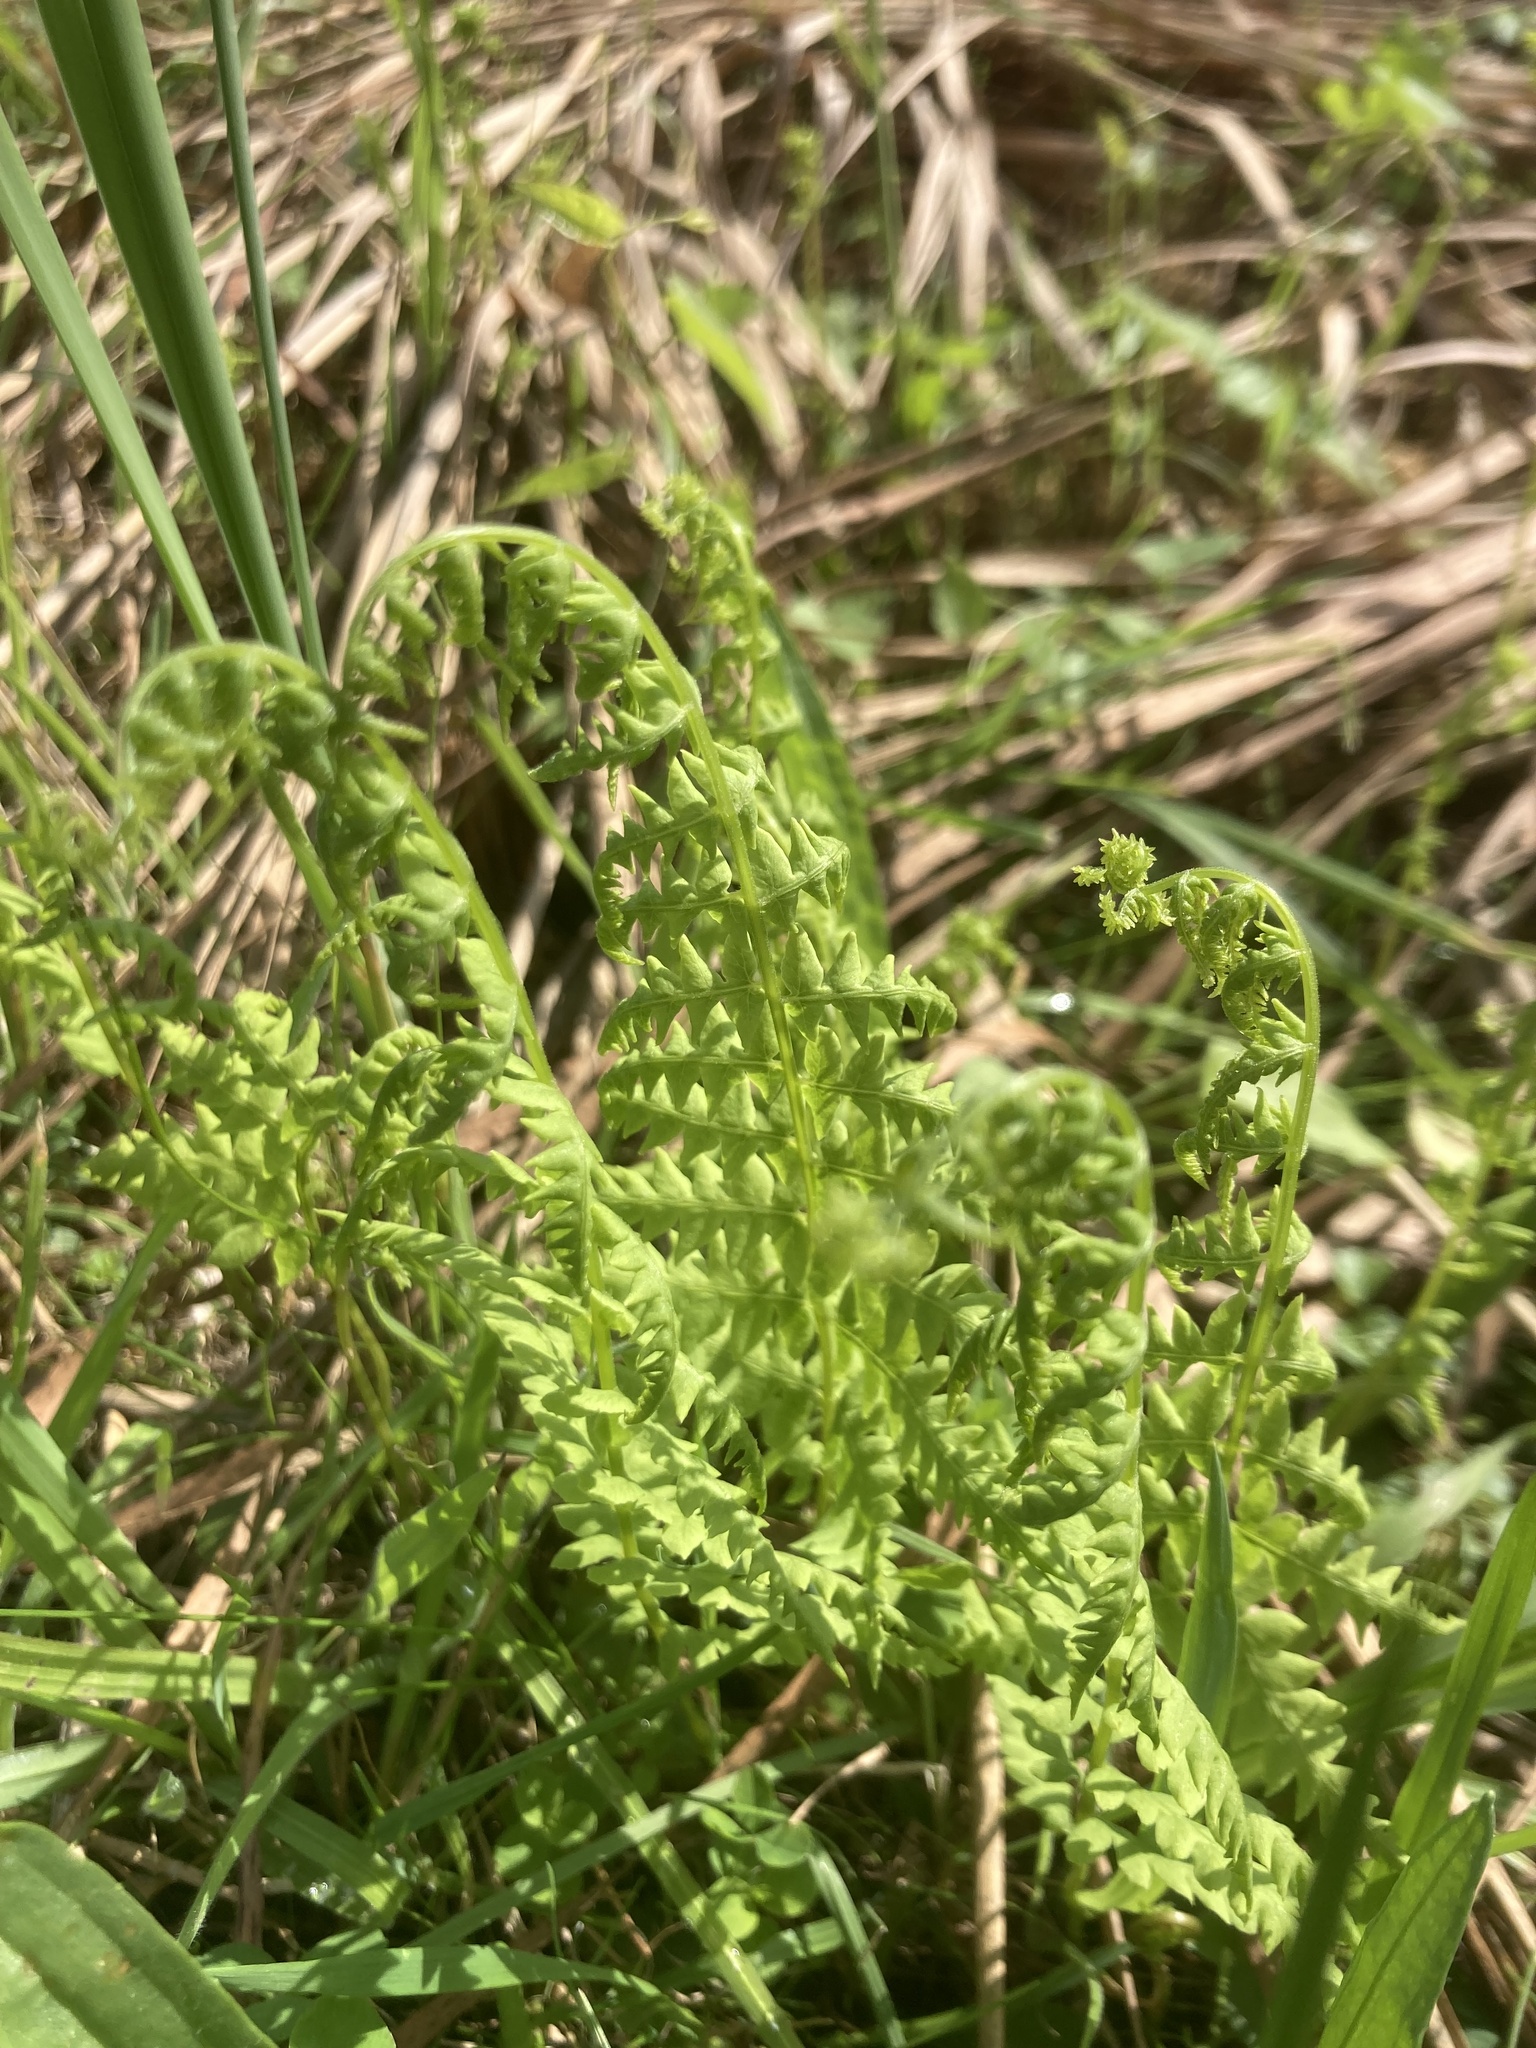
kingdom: Plantae
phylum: Tracheophyta
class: Polypodiopsida
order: Polypodiales
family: Thelypteridaceae
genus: Thelypteris
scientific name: Thelypteris palustris
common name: Marsh fern
